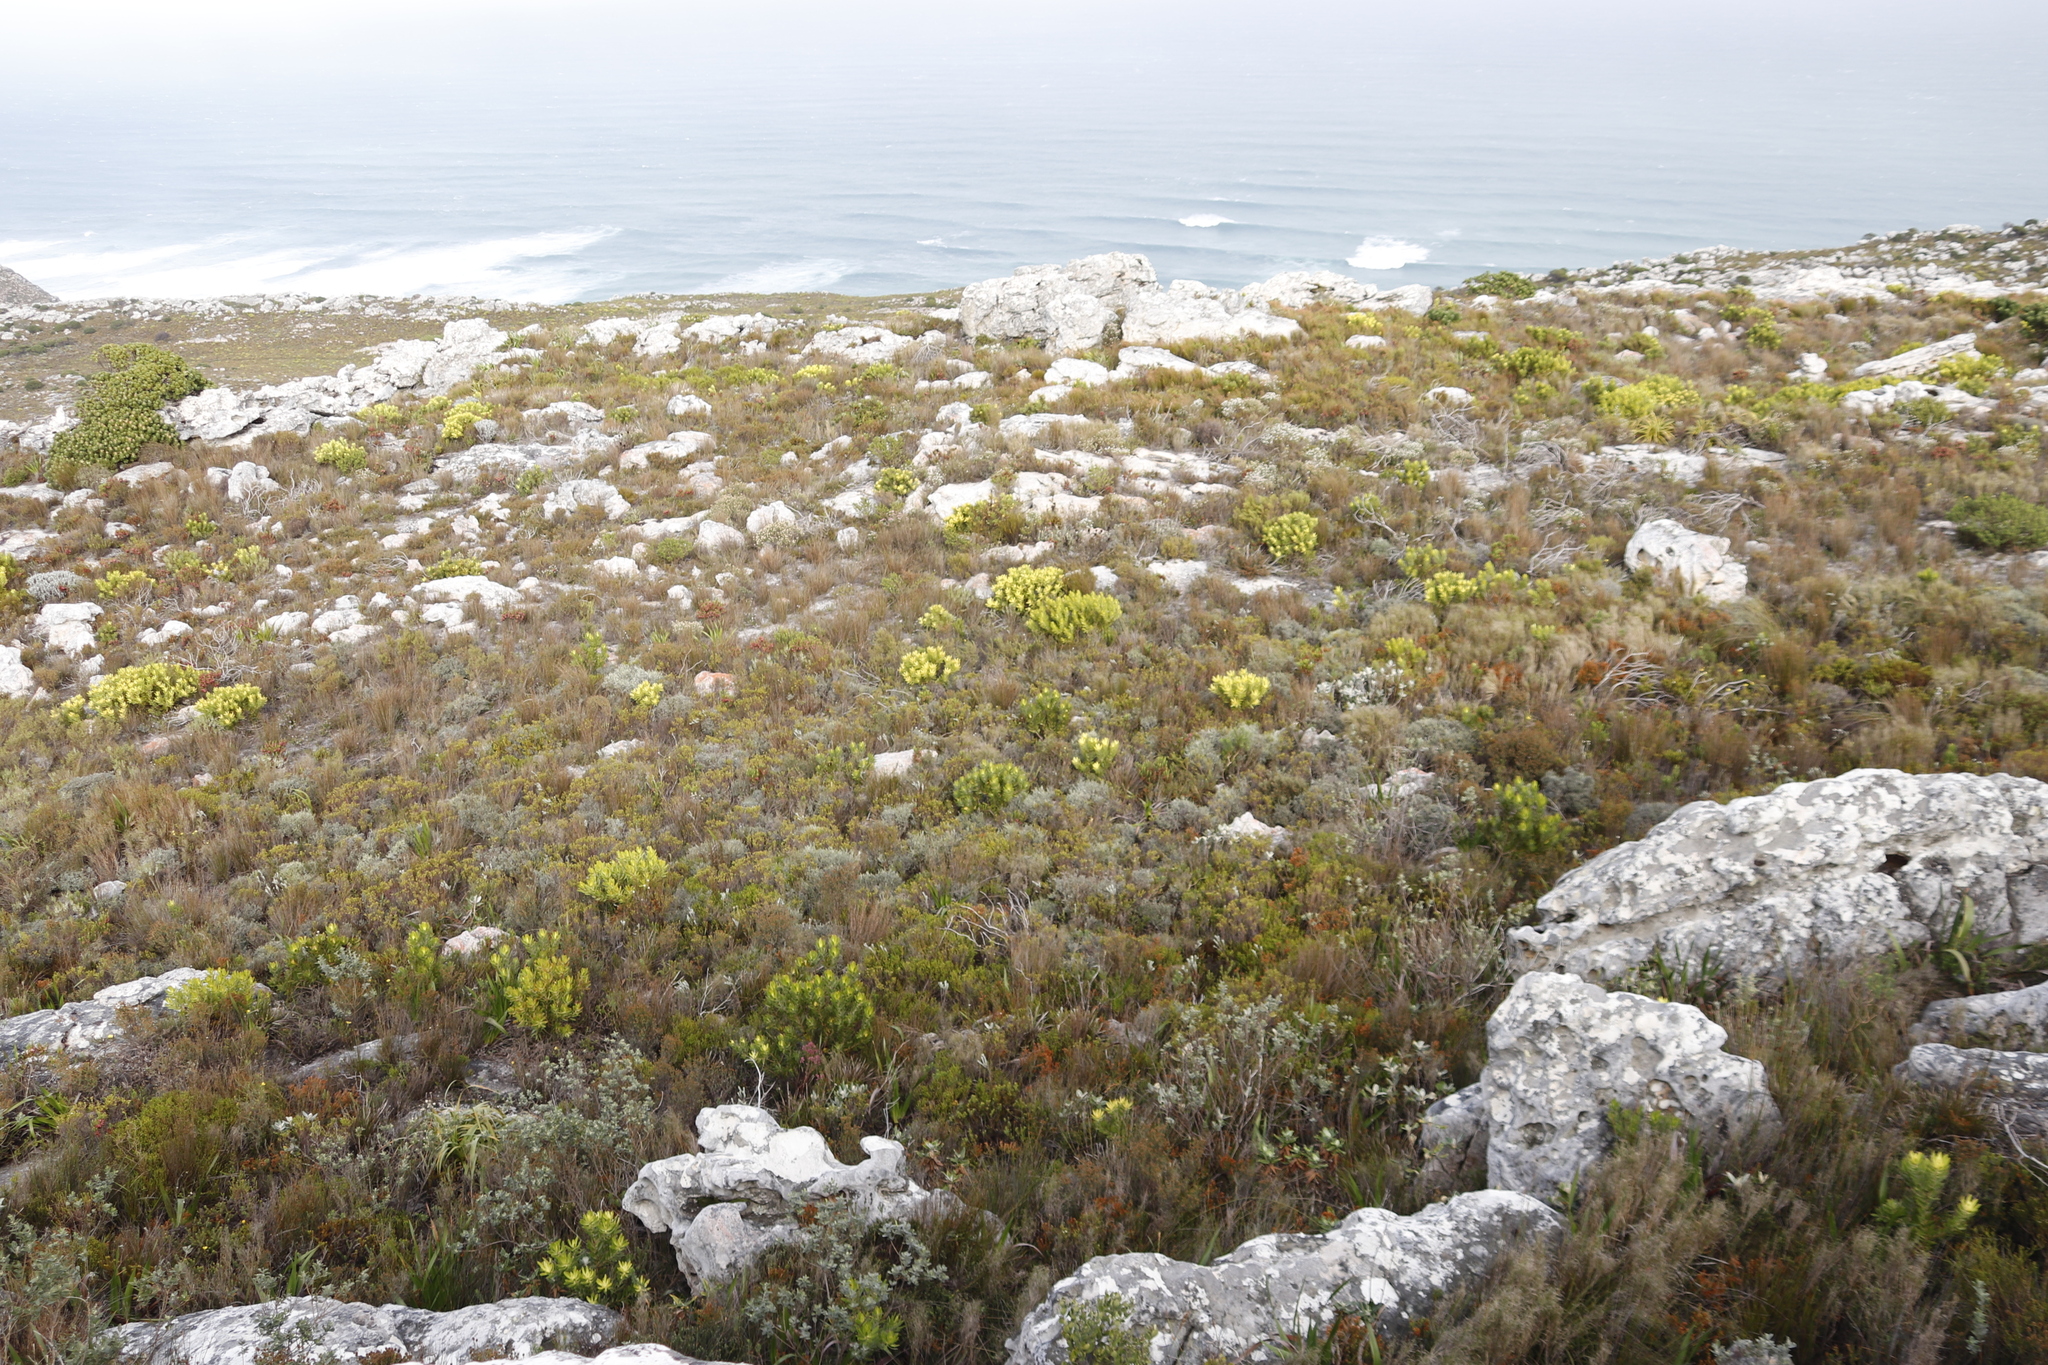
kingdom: Plantae
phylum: Tracheophyta
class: Magnoliopsida
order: Proteales
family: Proteaceae
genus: Leucadendron
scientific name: Leucadendron laureolum
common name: Golden sunshinebush
